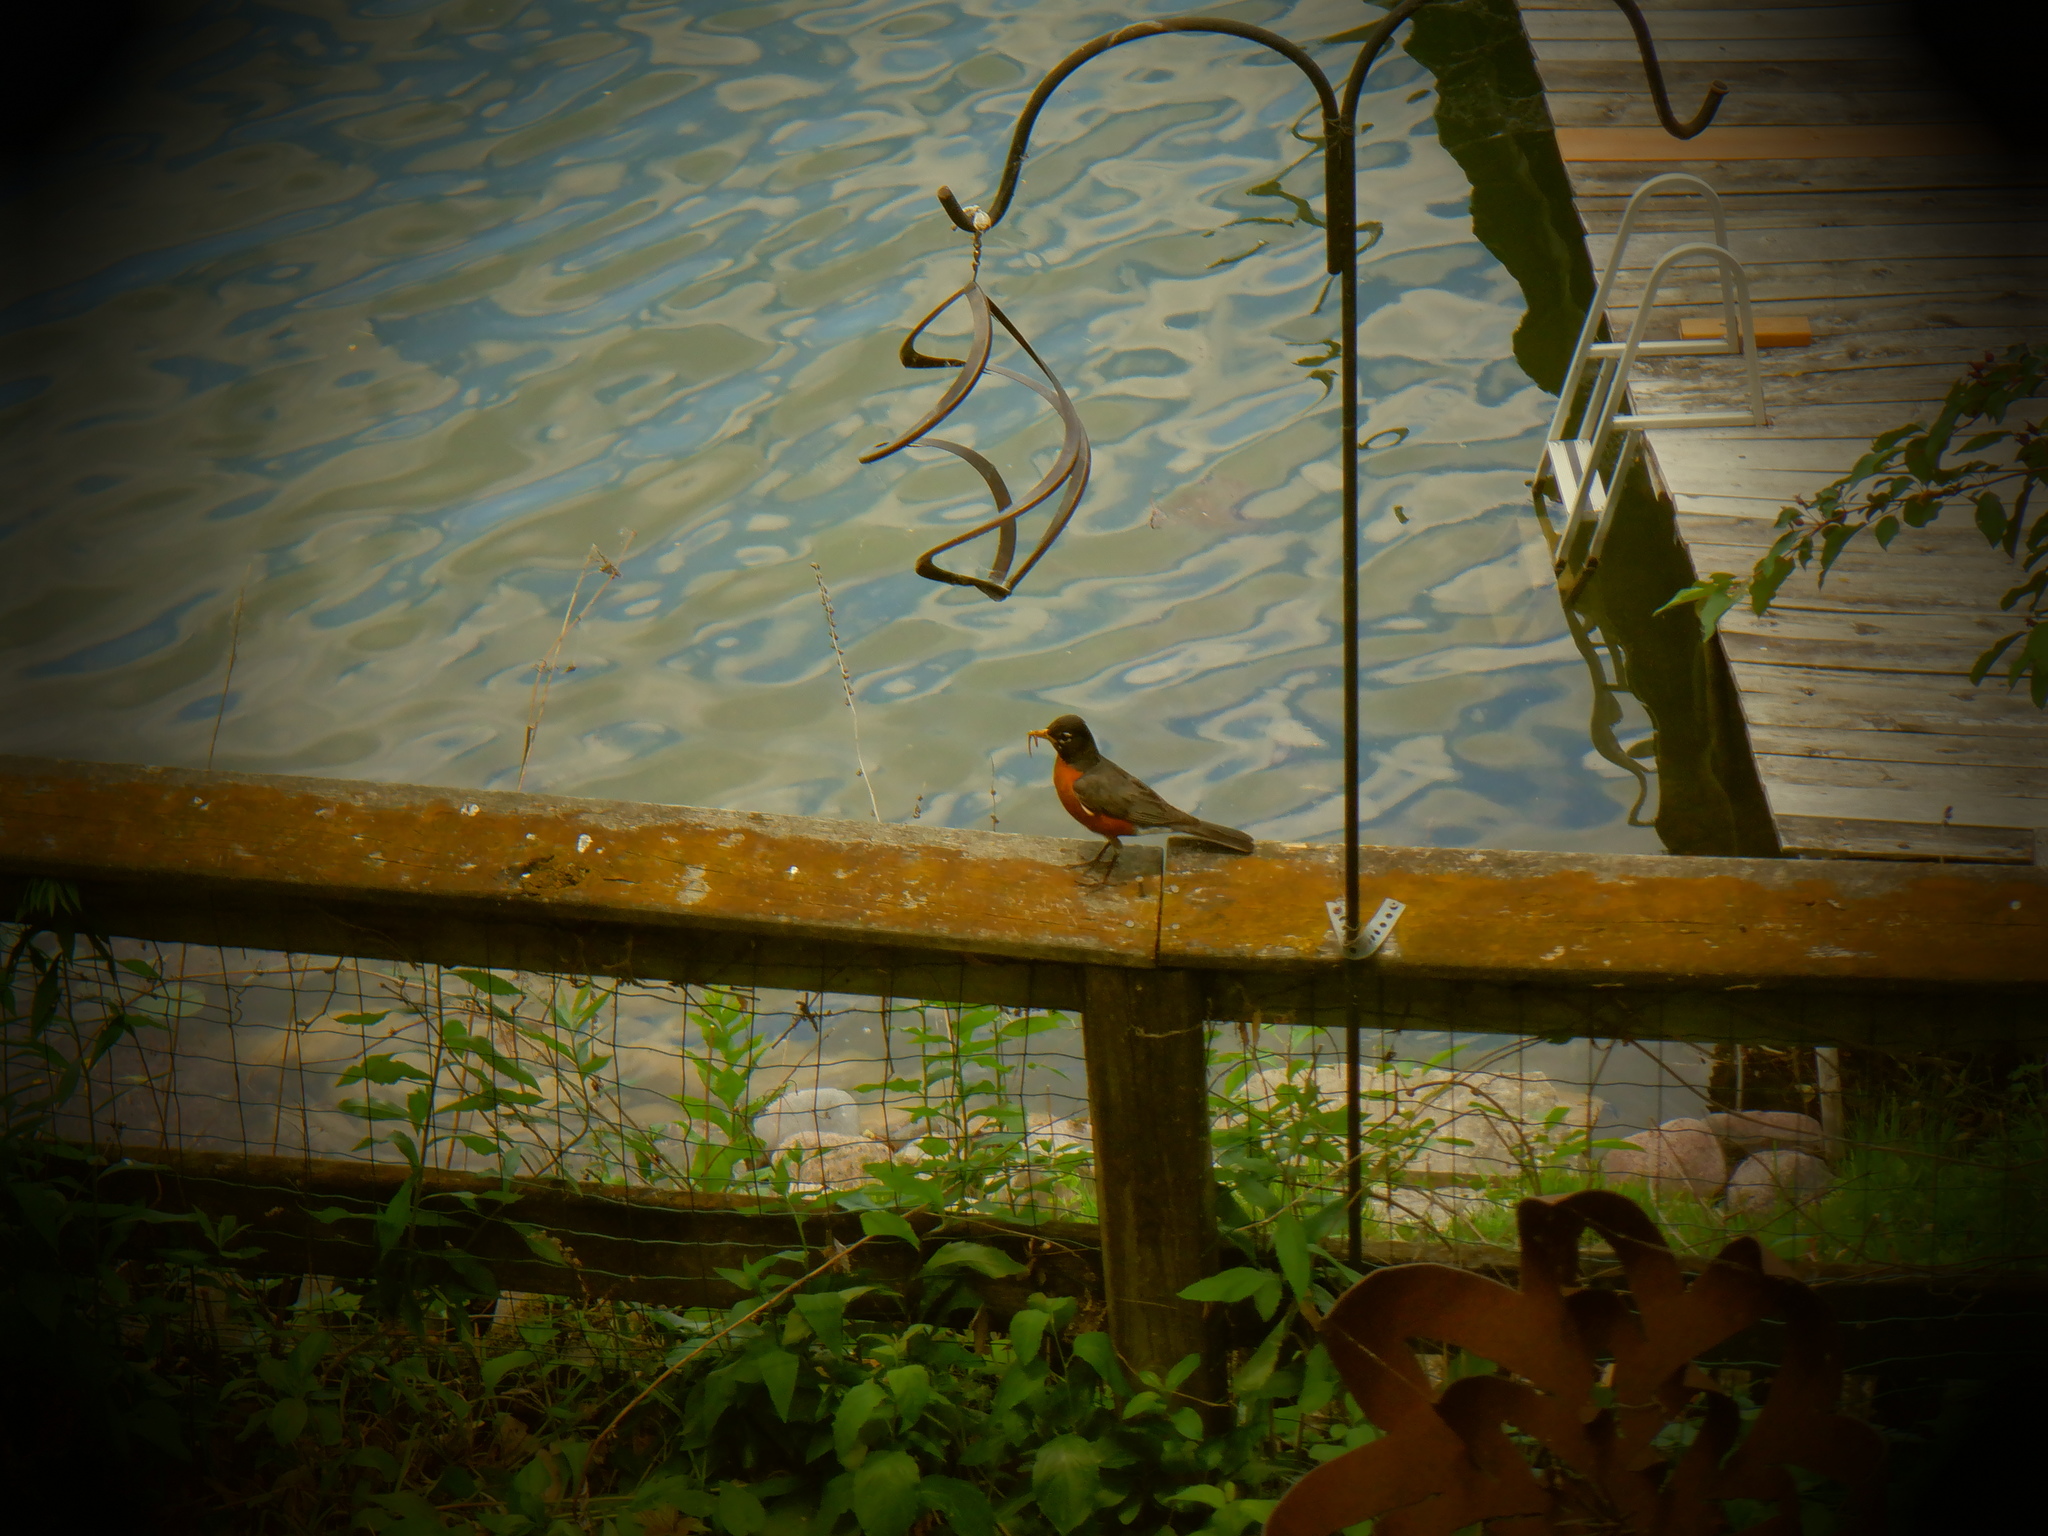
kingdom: Animalia
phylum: Chordata
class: Aves
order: Passeriformes
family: Turdidae
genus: Turdus
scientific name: Turdus migratorius
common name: American robin
